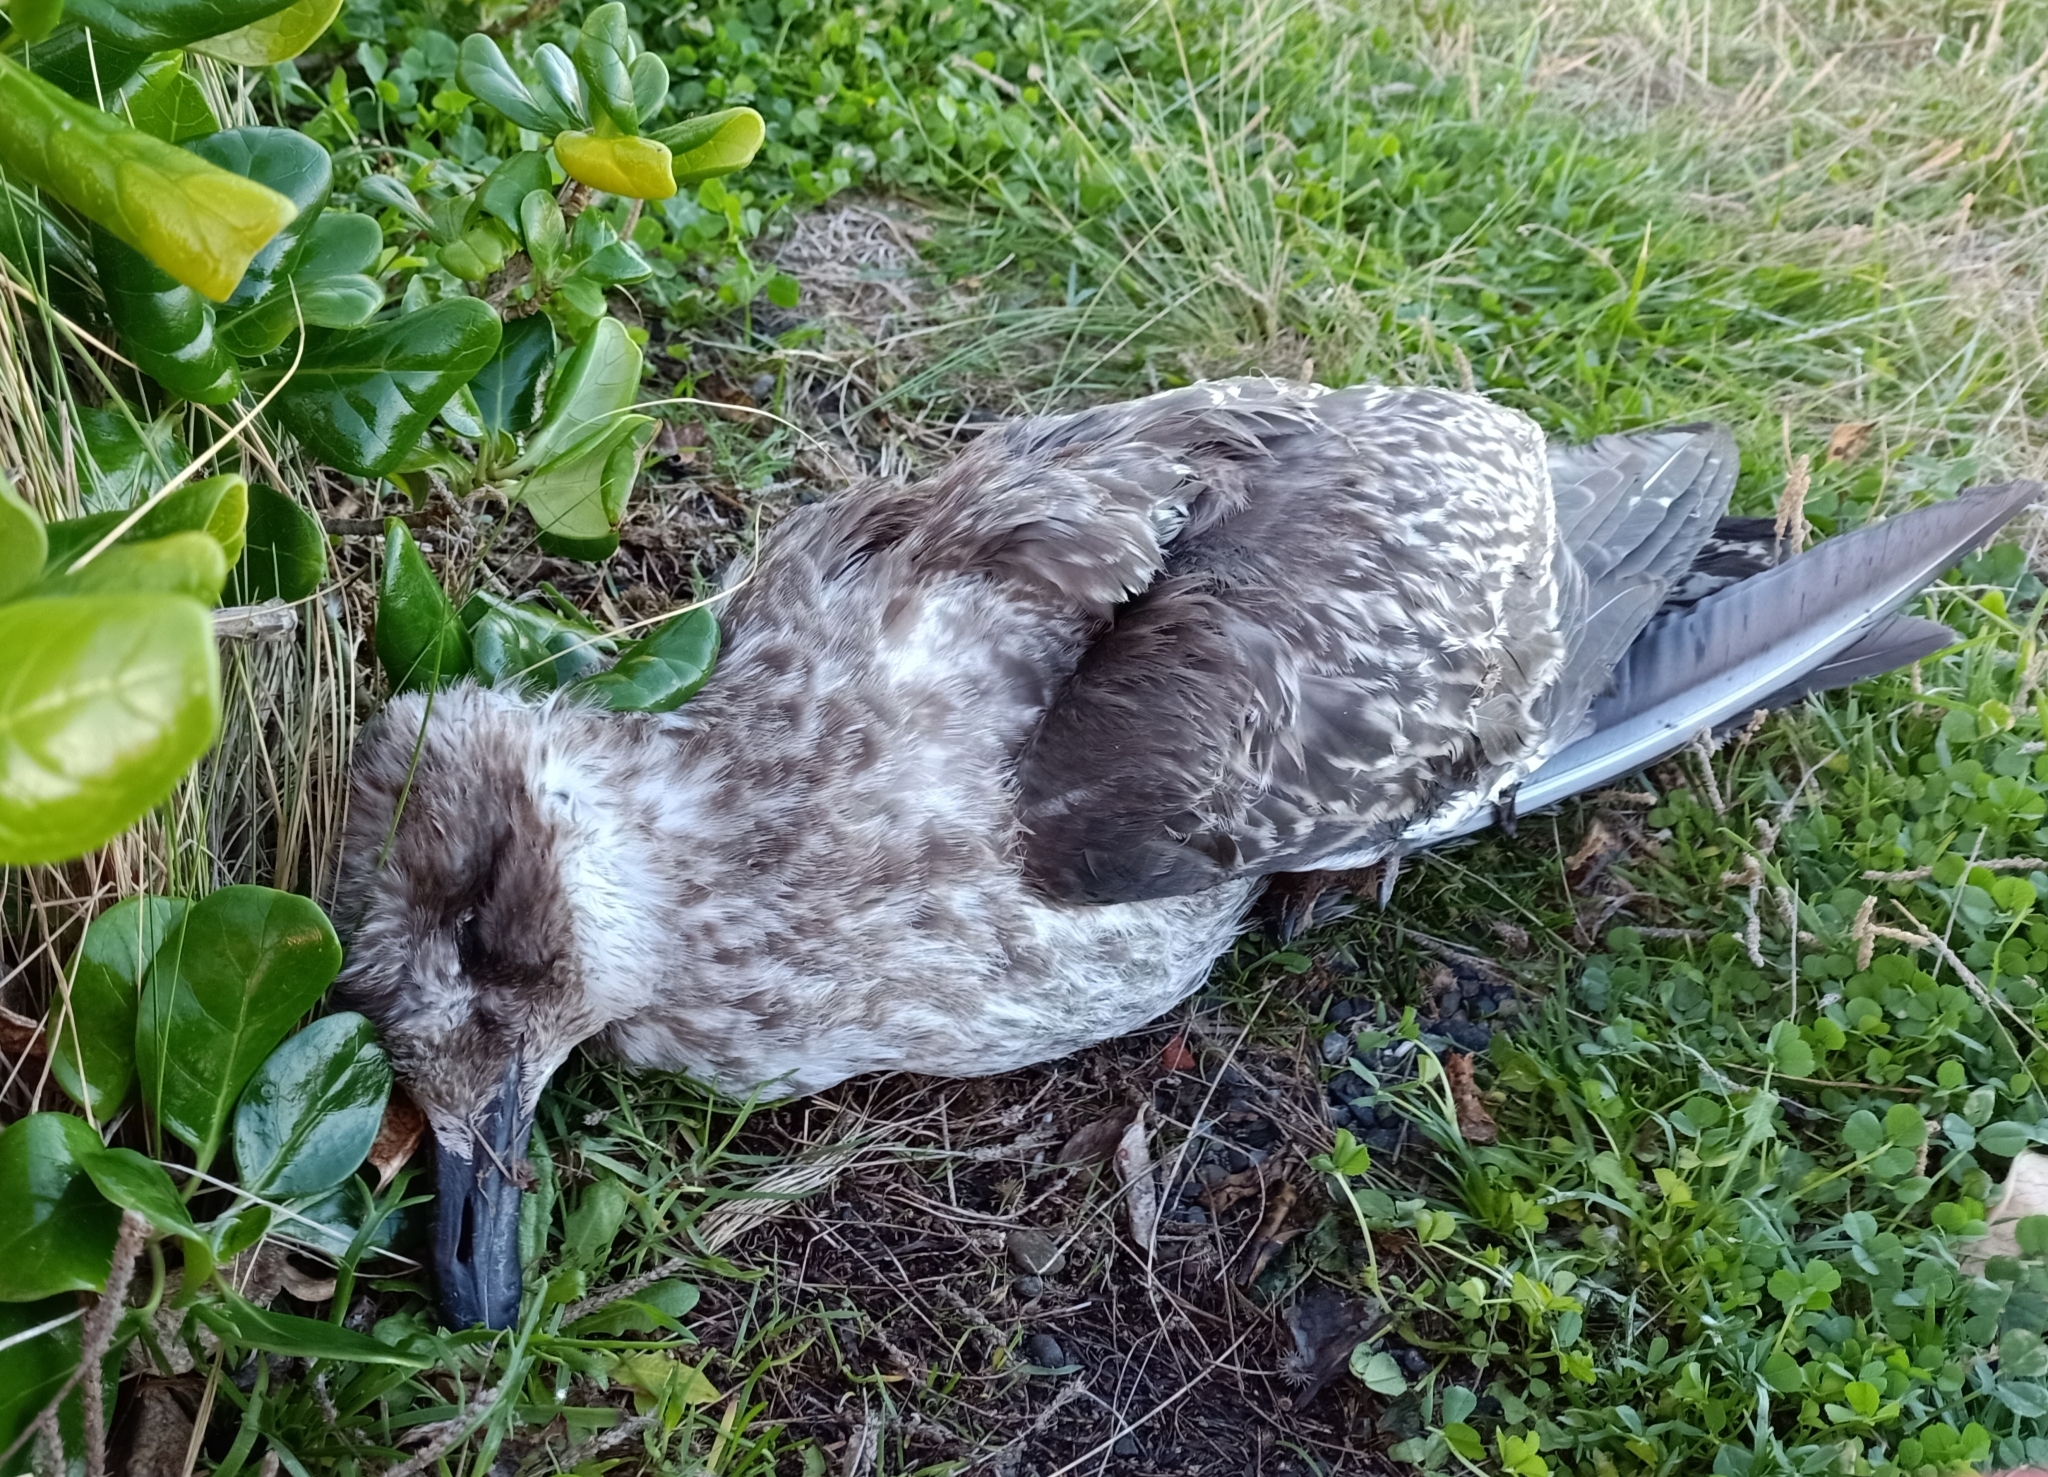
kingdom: Animalia
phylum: Chordata
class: Aves
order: Charadriiformes
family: Laridae
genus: Larus
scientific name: Larus dominicanus
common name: Kelp gull
